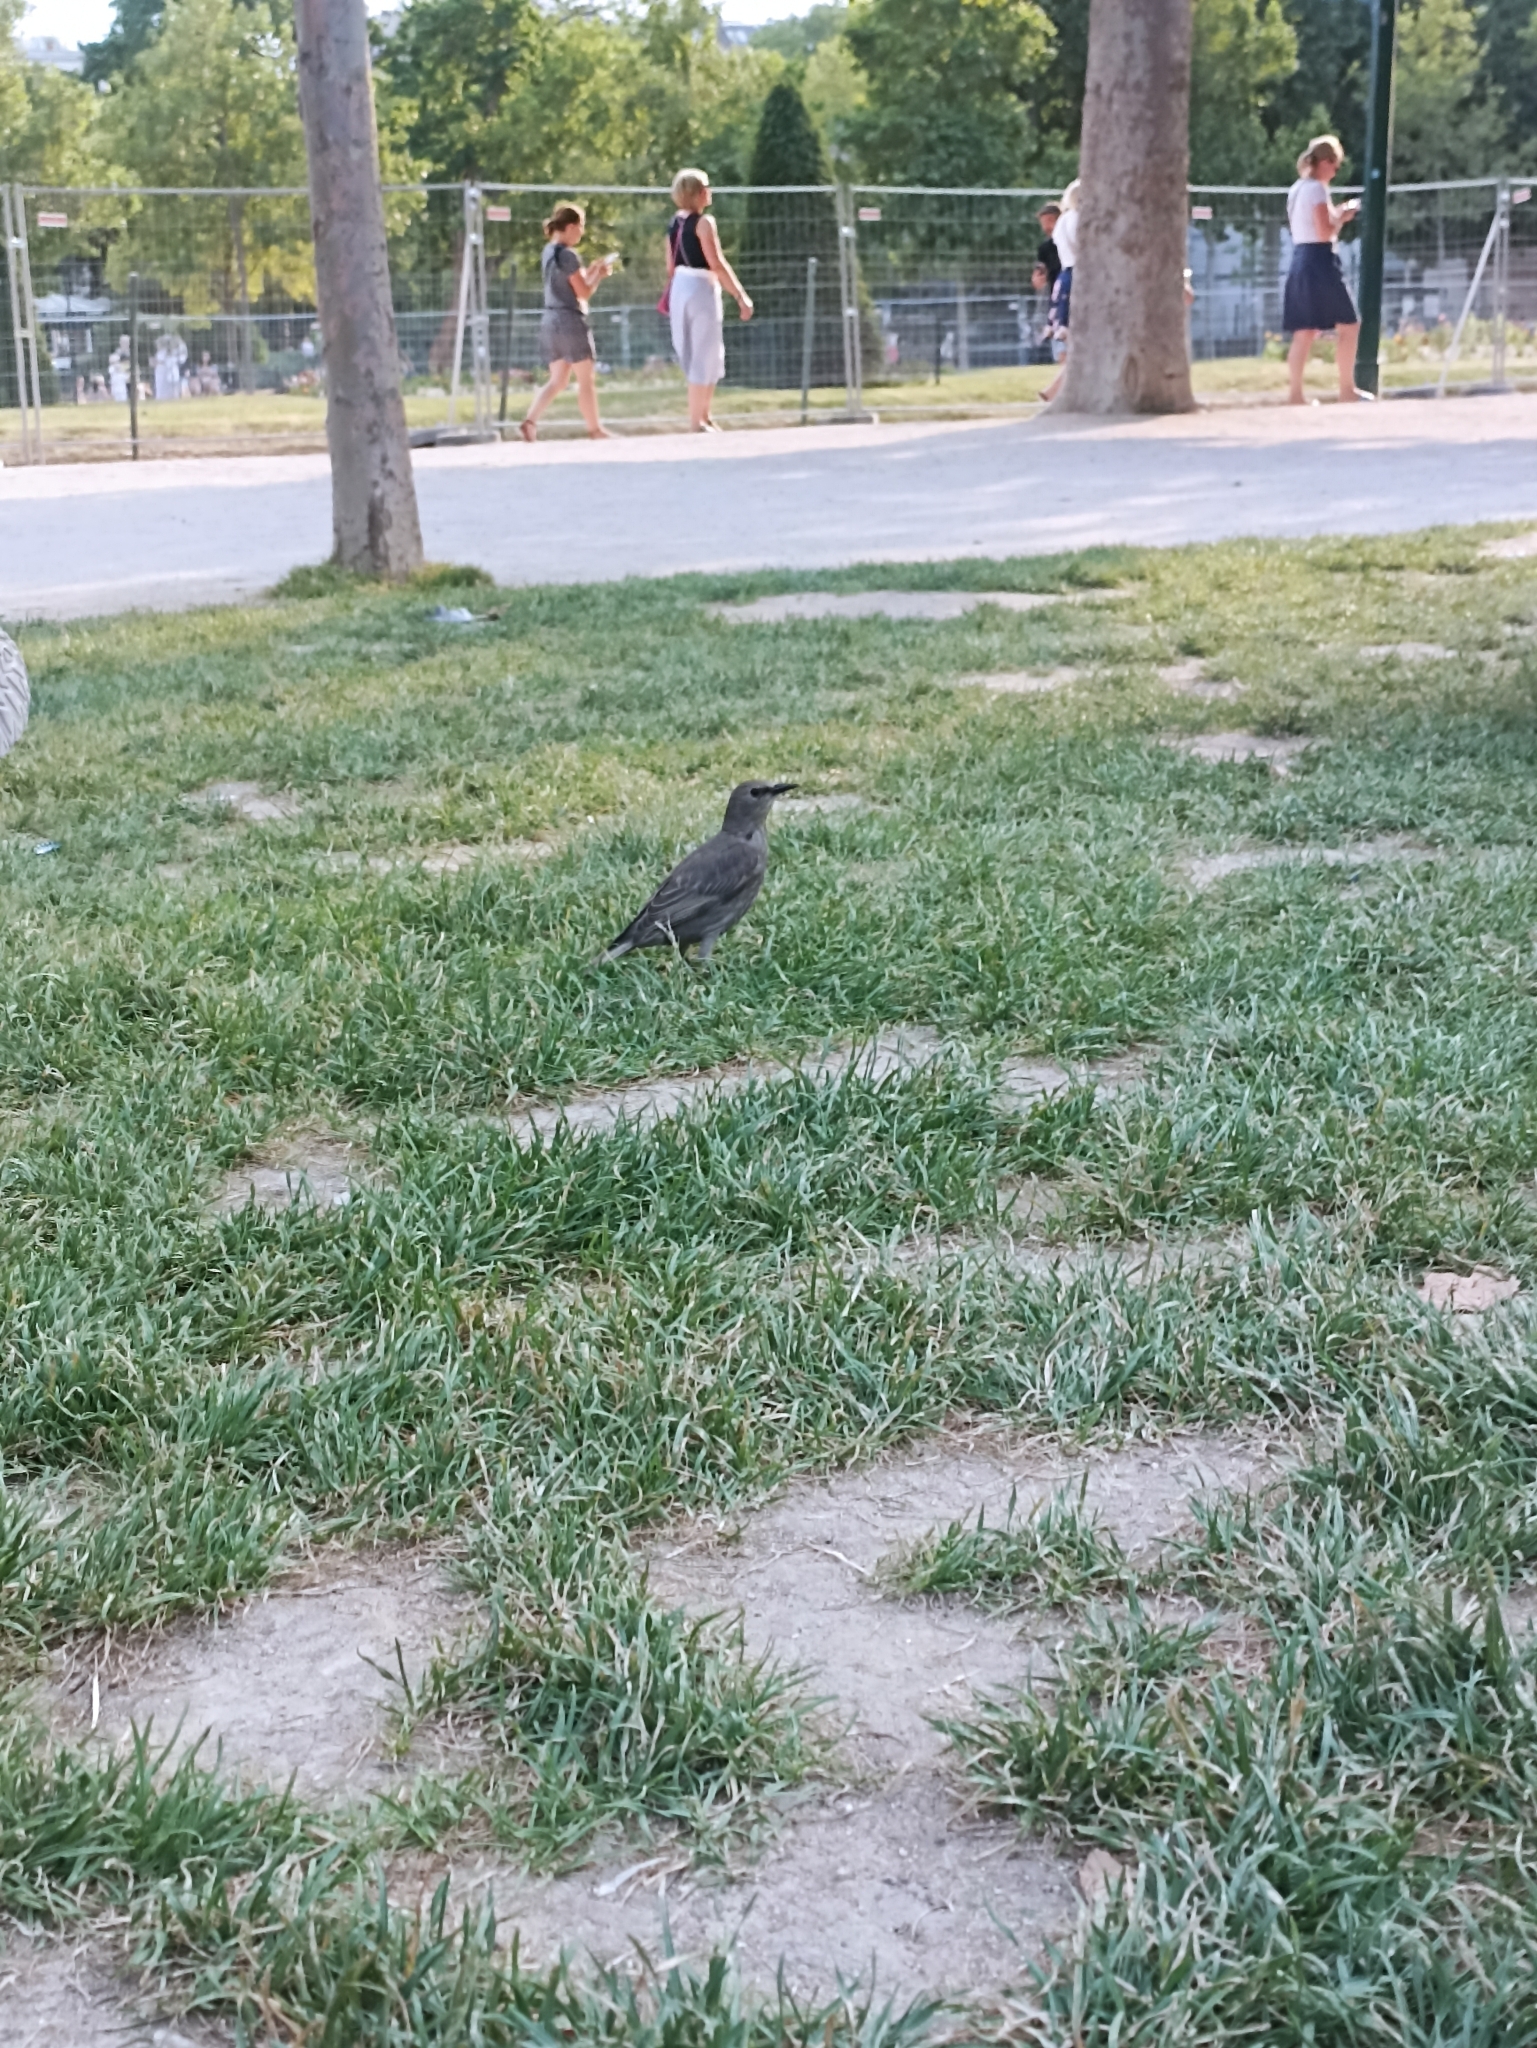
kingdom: Animalia
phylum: Chordata
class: Aves
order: Passeriformes
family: Sturnidae
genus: Sturnus
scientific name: Sturnus vulgaris
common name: Common starling
